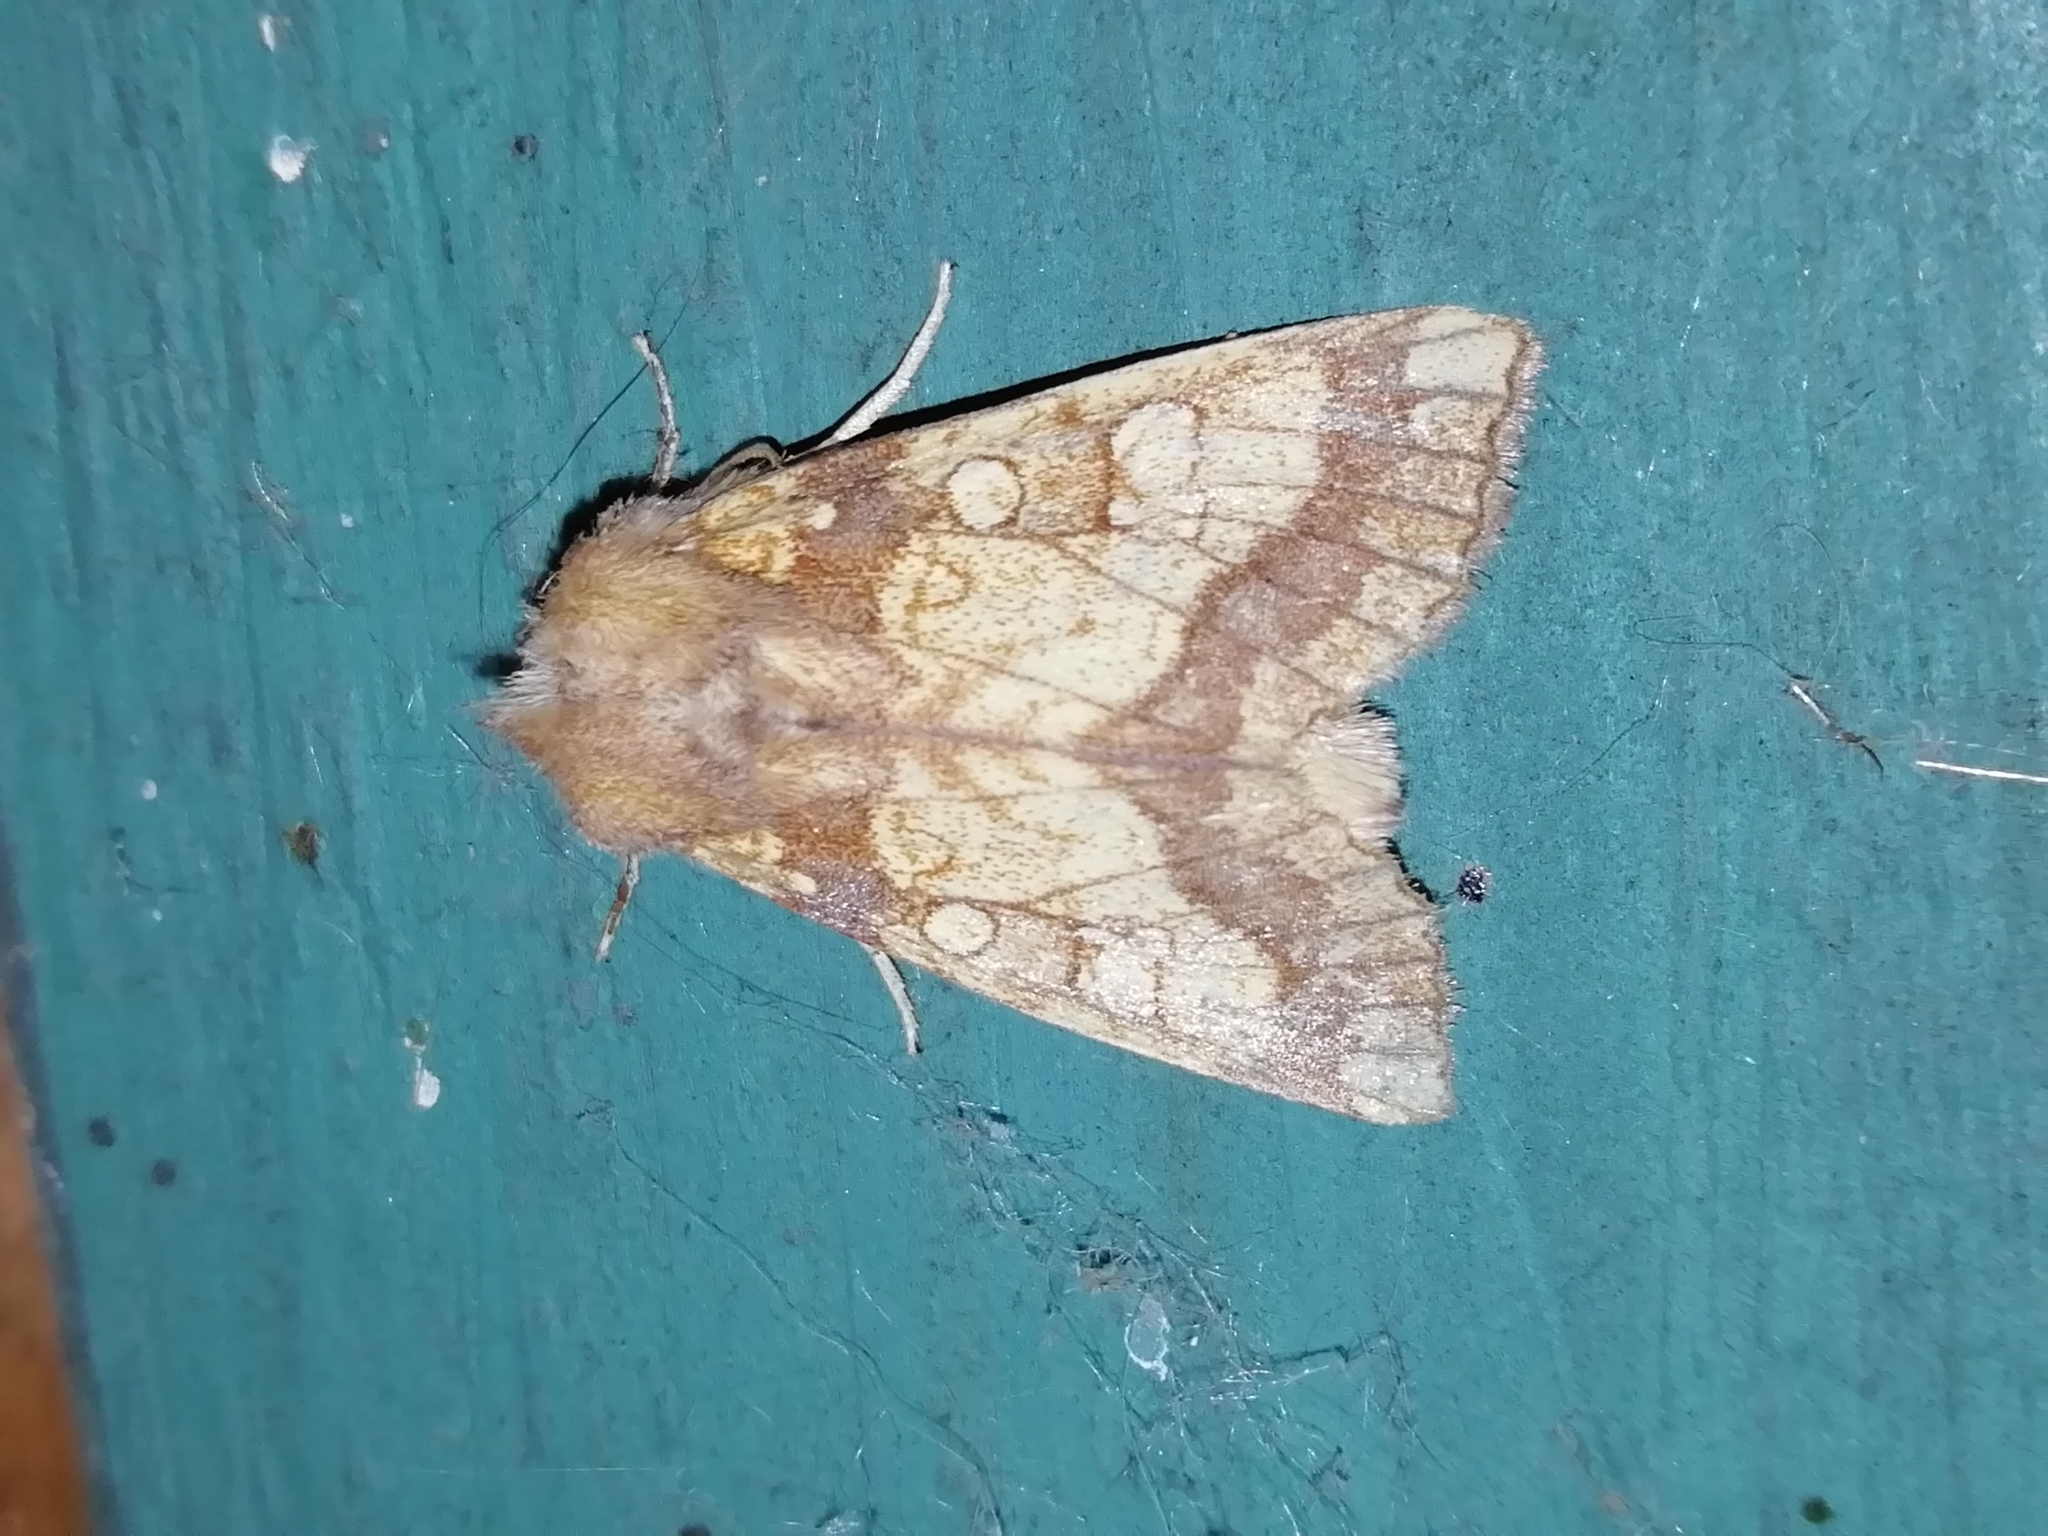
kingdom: Animalia
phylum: Arthropoda
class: Insecta
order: Lepidoptera
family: Noctuidae
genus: Gortyna
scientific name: Gortyna flavago
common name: Frosted orange
